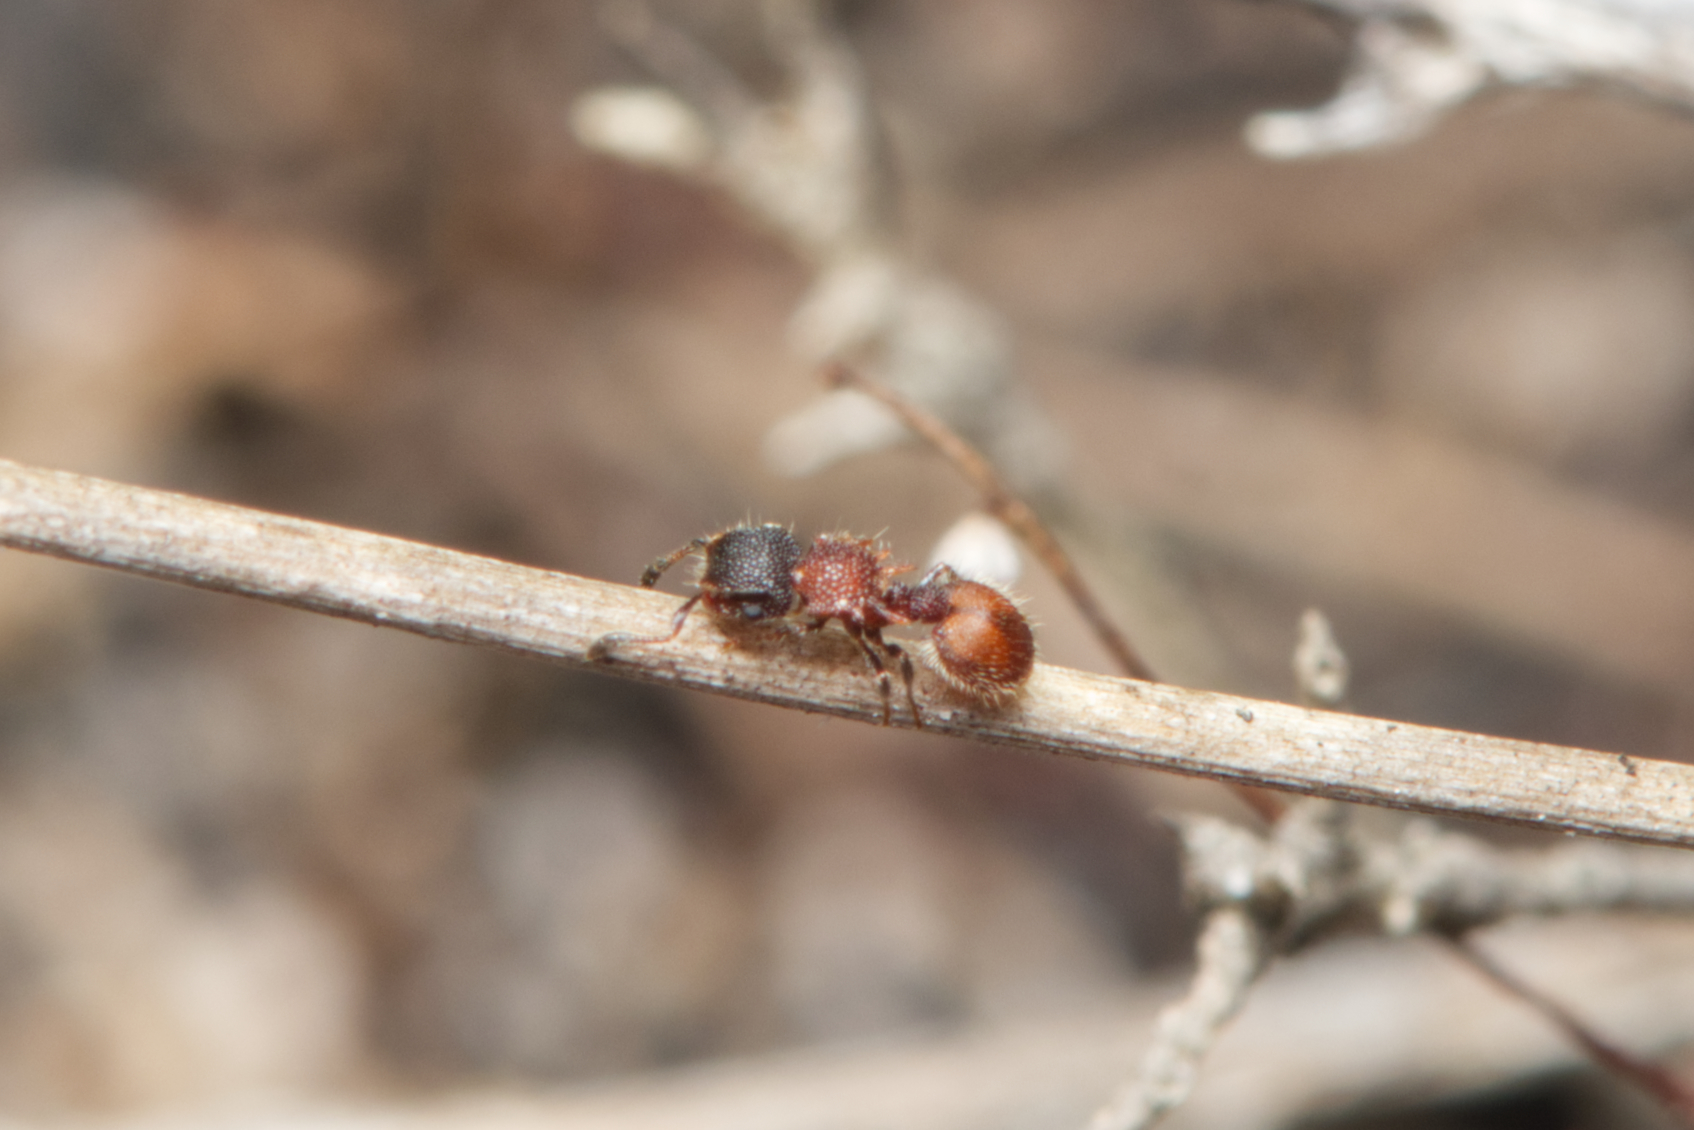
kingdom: Animalia
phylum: Arthropoda
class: Insecta
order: Hymenoptera
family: Formicidae
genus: Meranoplus
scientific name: Meranoplus
